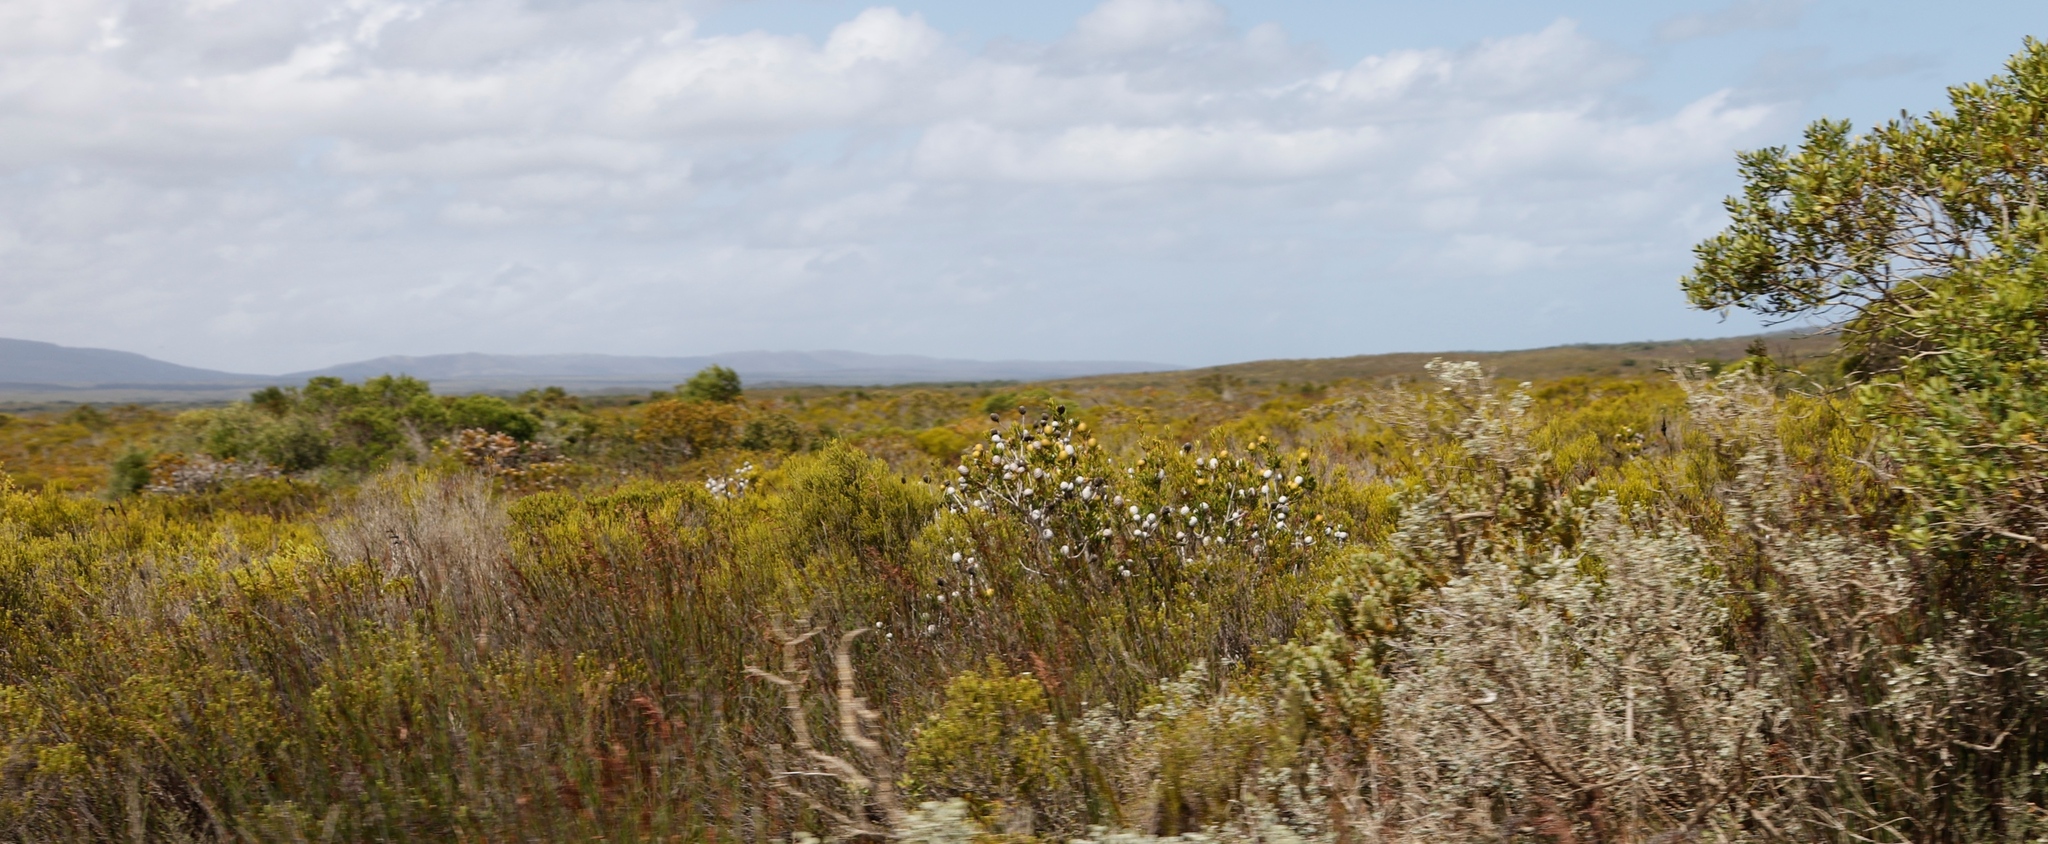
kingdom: Plantae
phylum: Tracheophyta
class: Magnoliopsida
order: Proteales
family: Proteaceae
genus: Leucadendron
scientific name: Leucadendron muirii
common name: Silver-ball conebush
